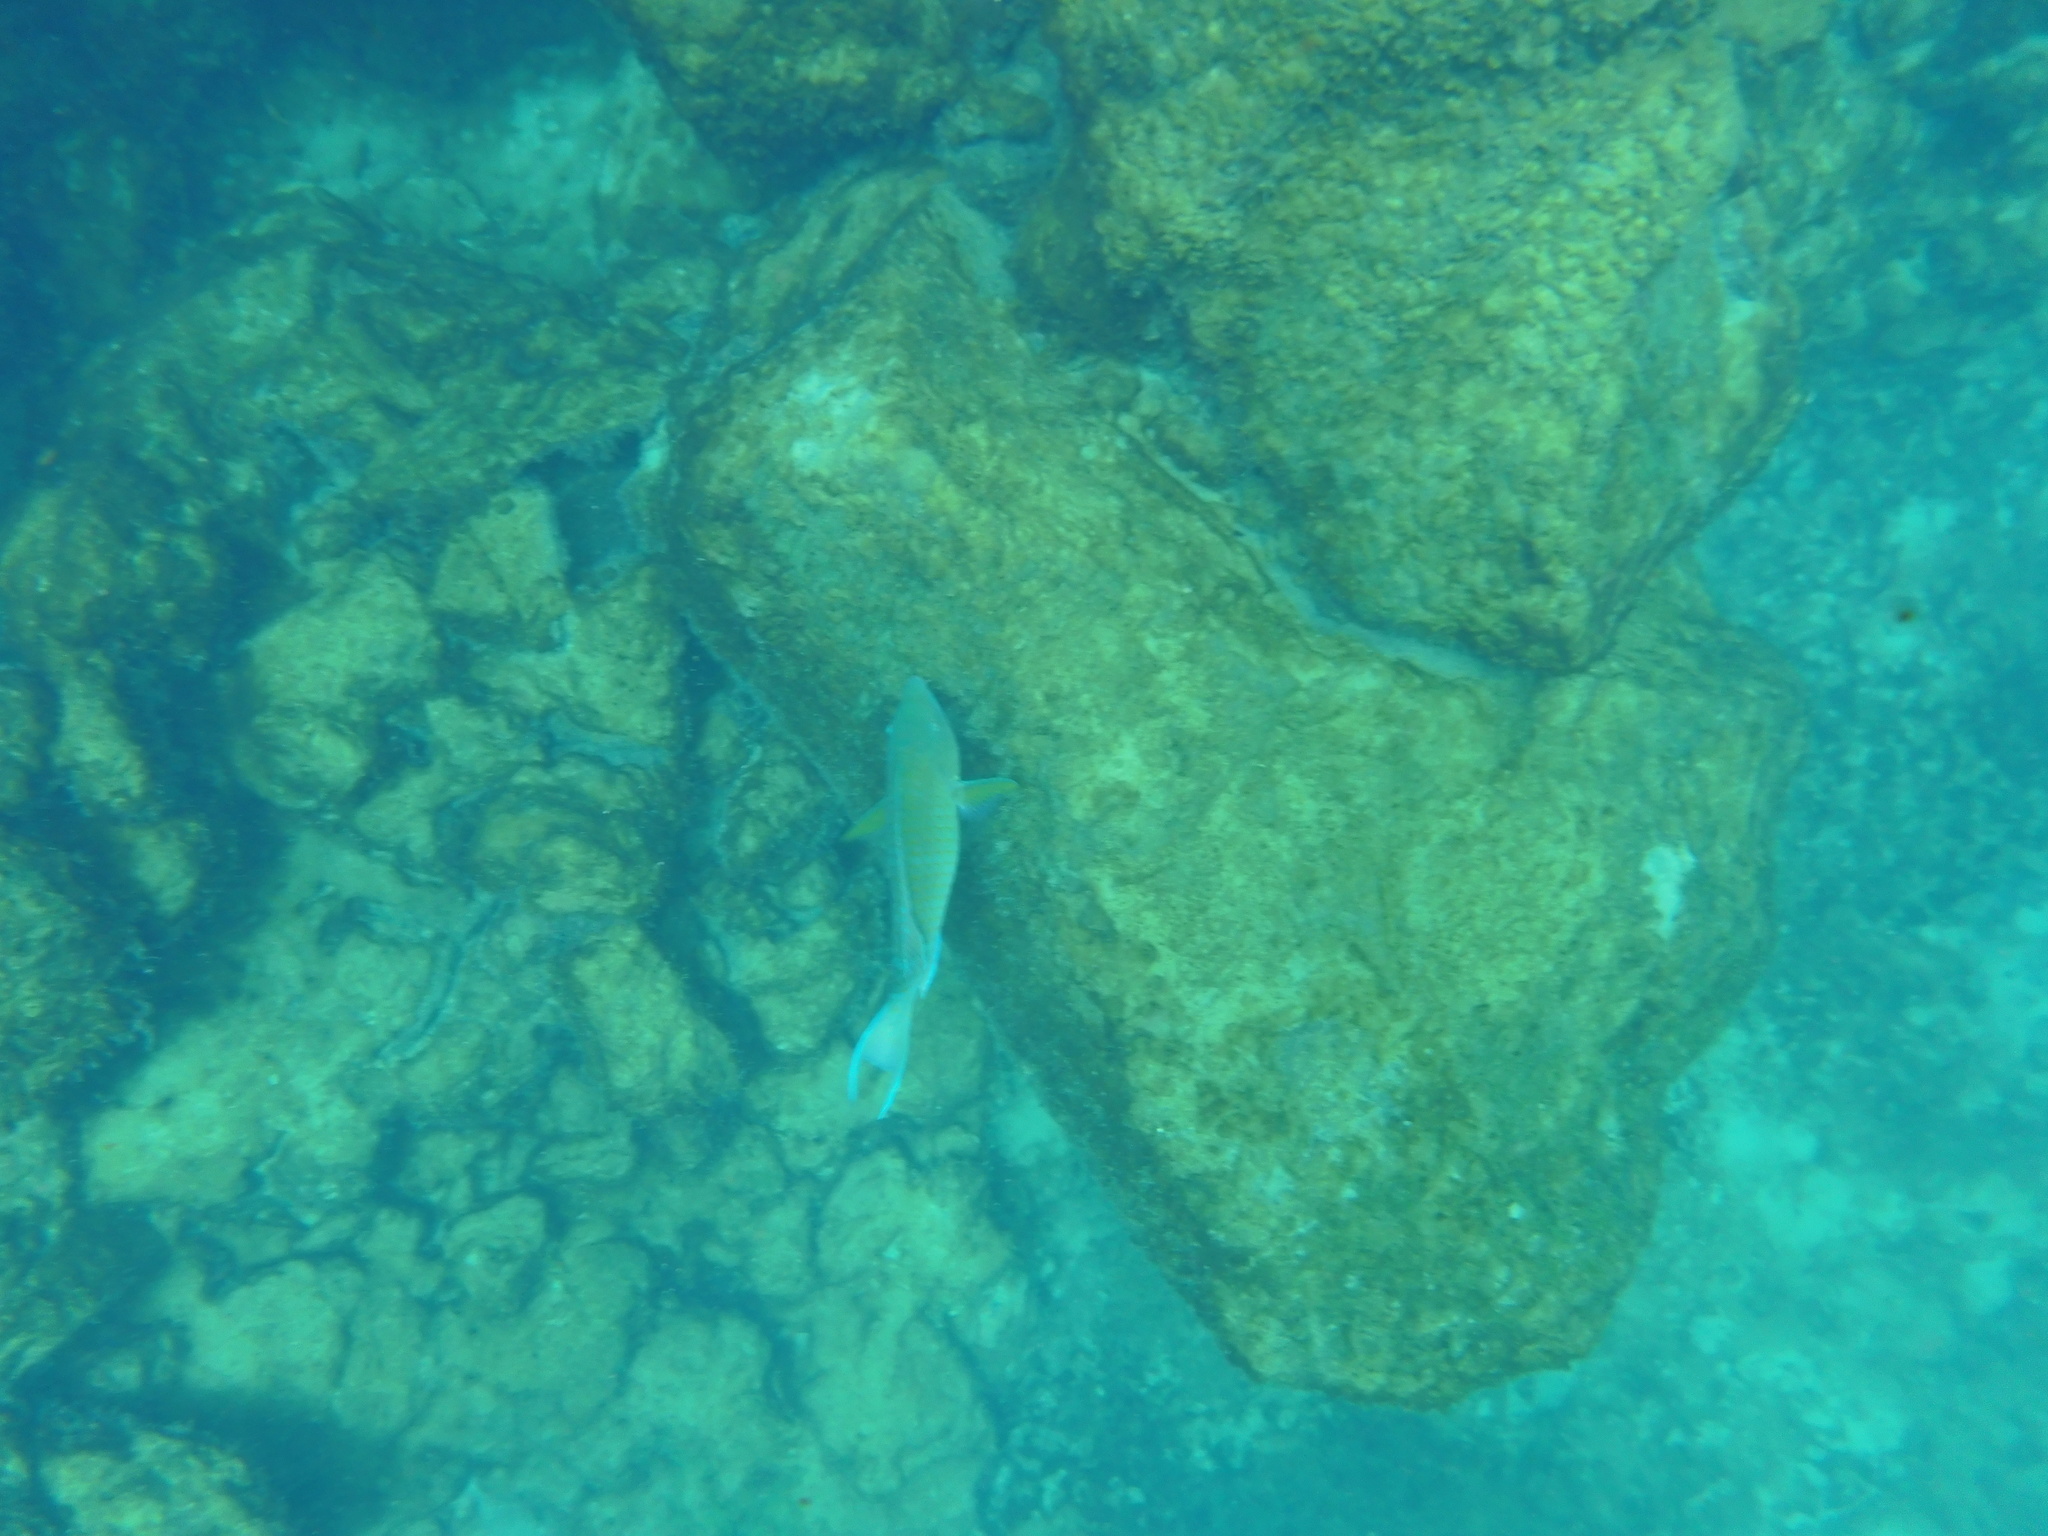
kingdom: Animalia
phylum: Chordata
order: Perciformes
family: Scaridae
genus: Scarus
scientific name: Scarus ghobban
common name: Blue-barred parrotfish
